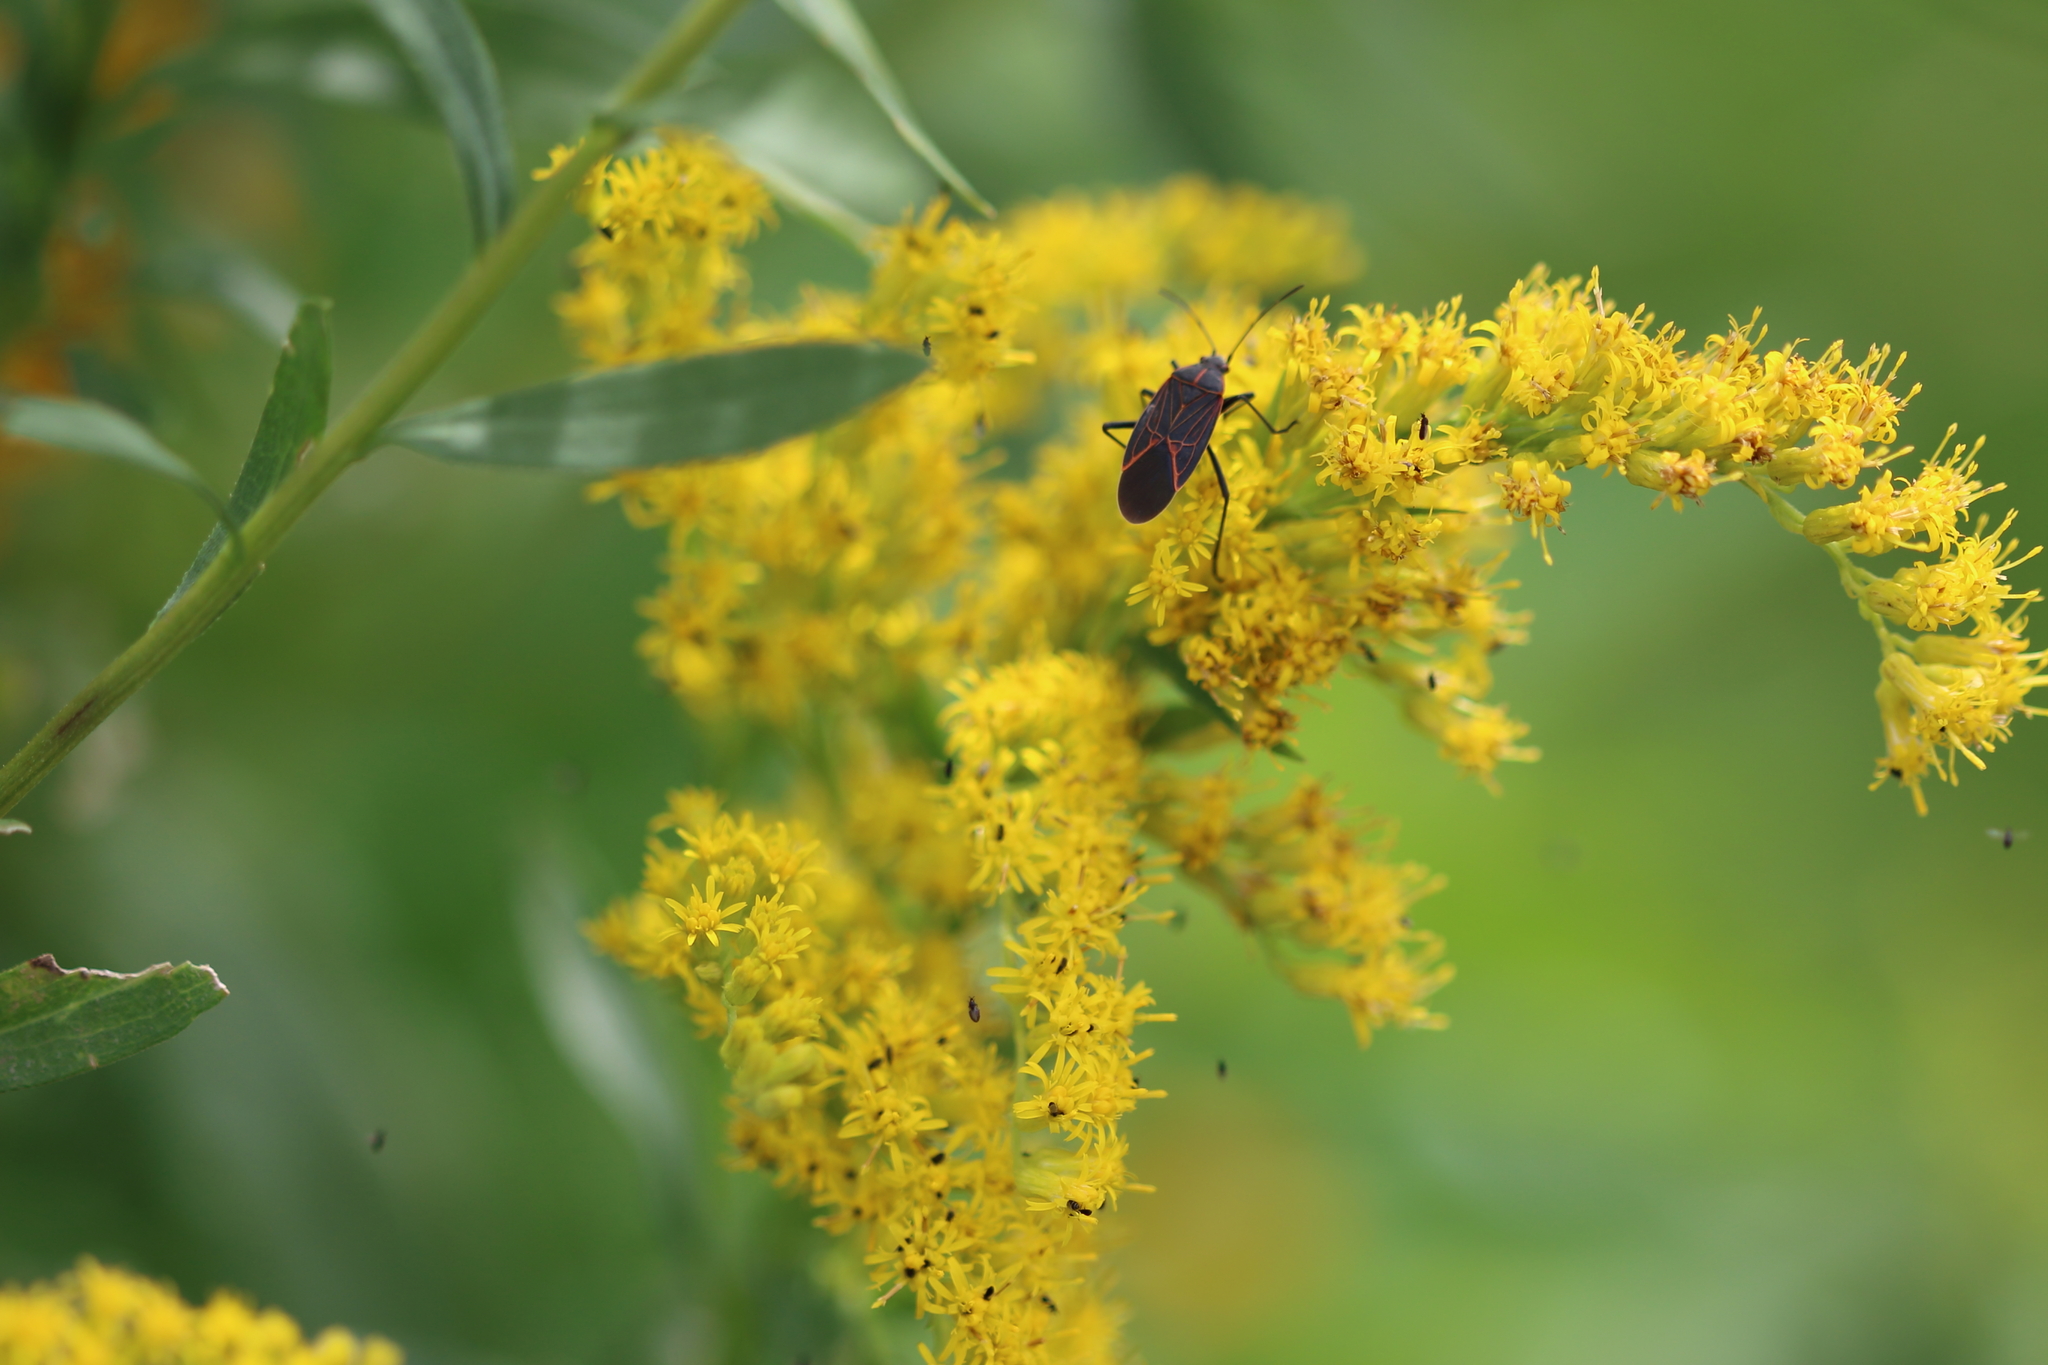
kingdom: Animalia
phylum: Arthropoda
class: Insecta
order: Hemiptera
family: Rhopalidae
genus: Boisea
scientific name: Boisea rubrolineata
